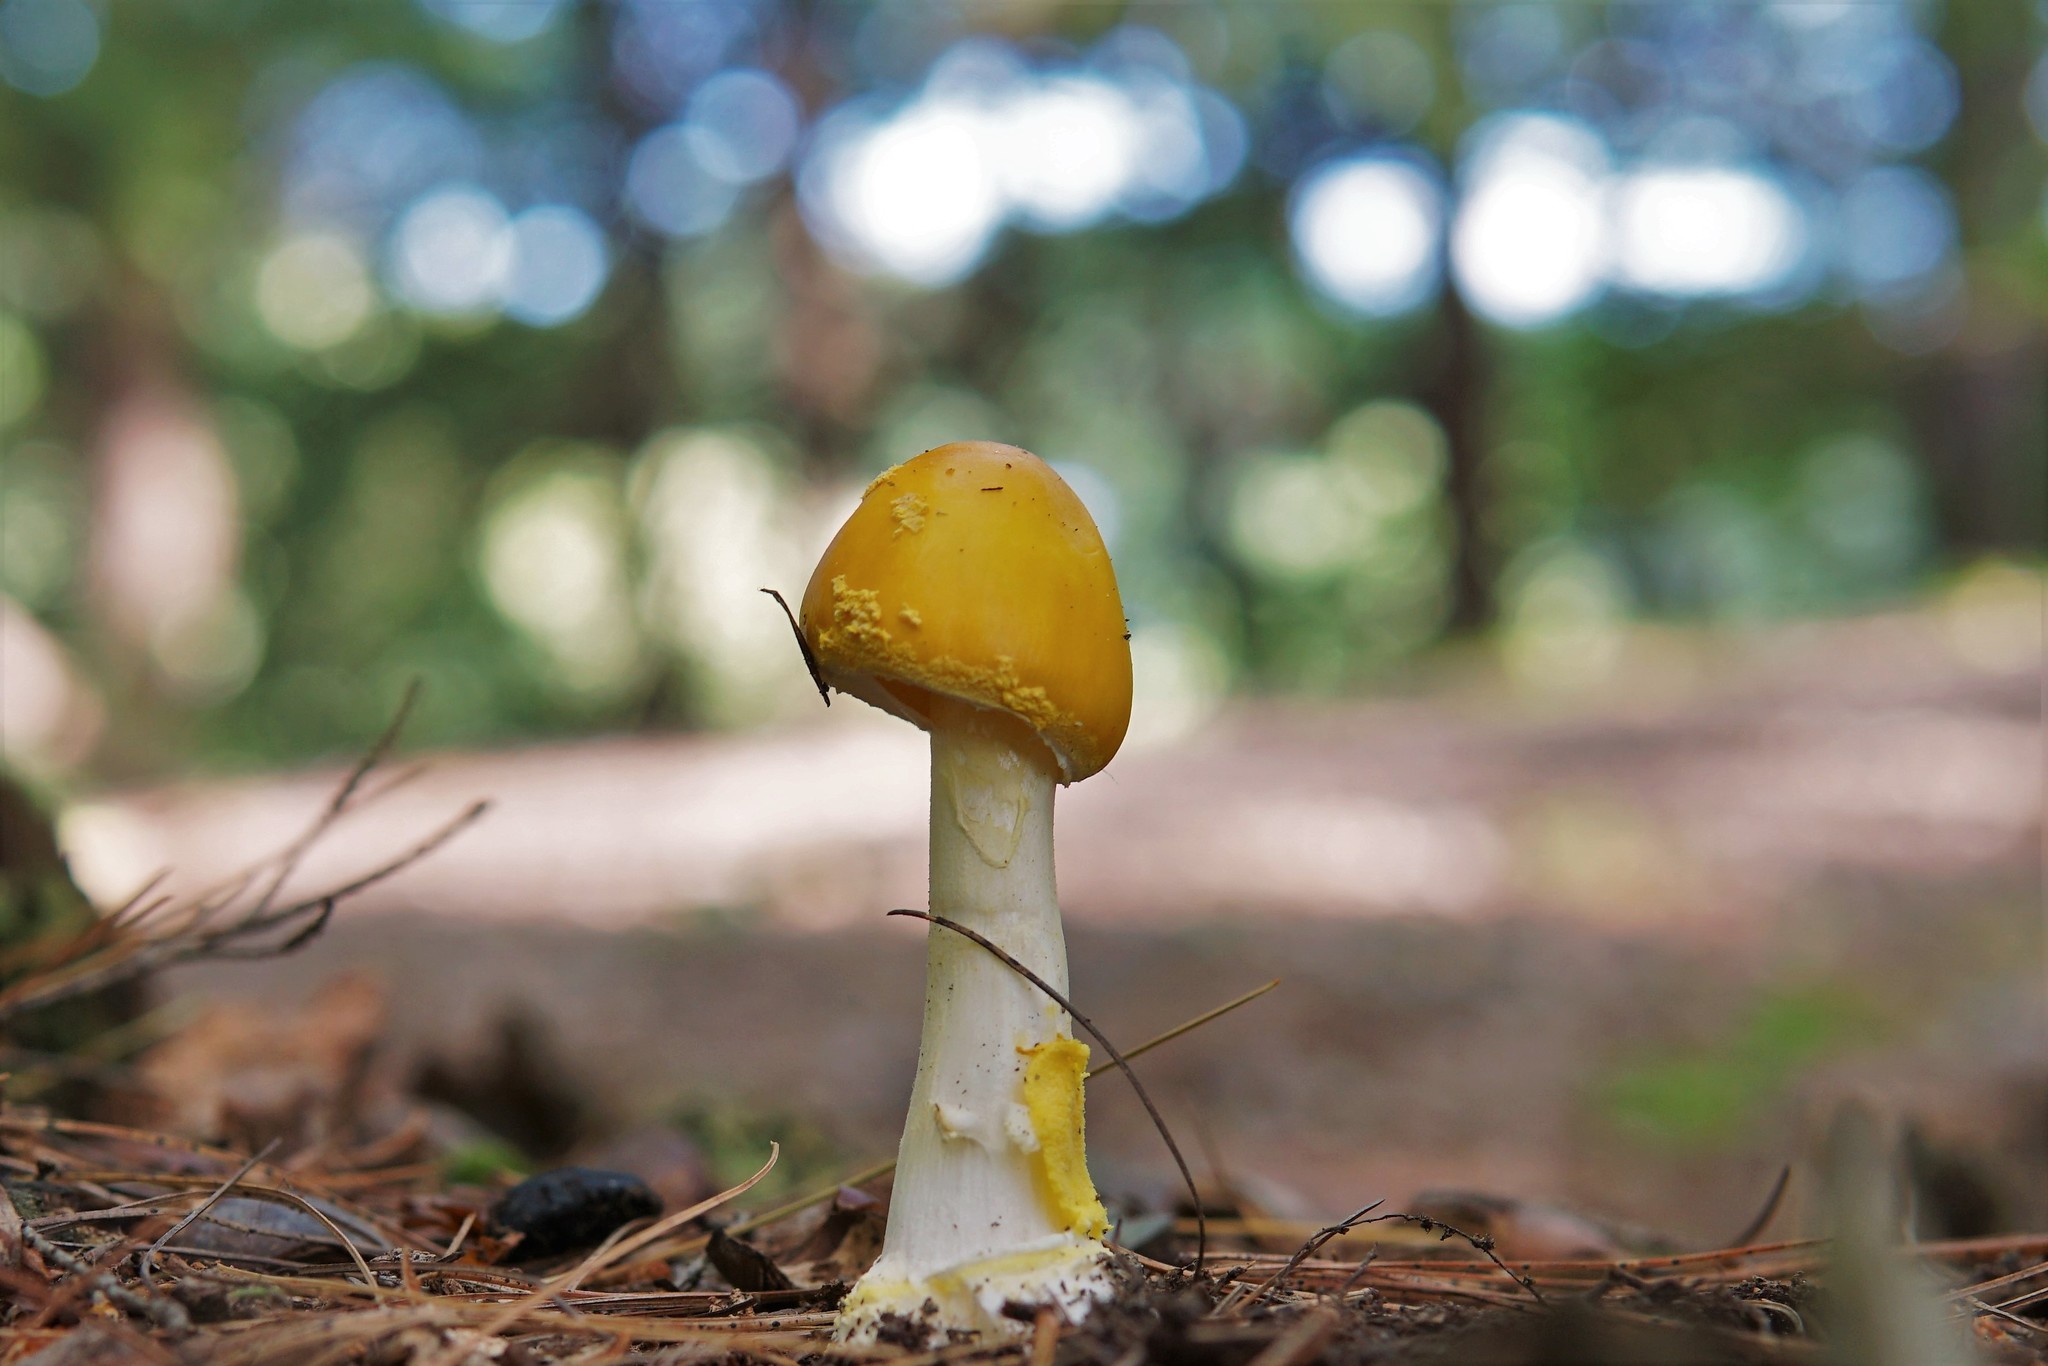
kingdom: Fungi
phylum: Basidiomycota
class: Agaricomycetes
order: Agaricales
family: Amanitaceae
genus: Amanita
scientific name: Amanita frostiana
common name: Frost's amanita
